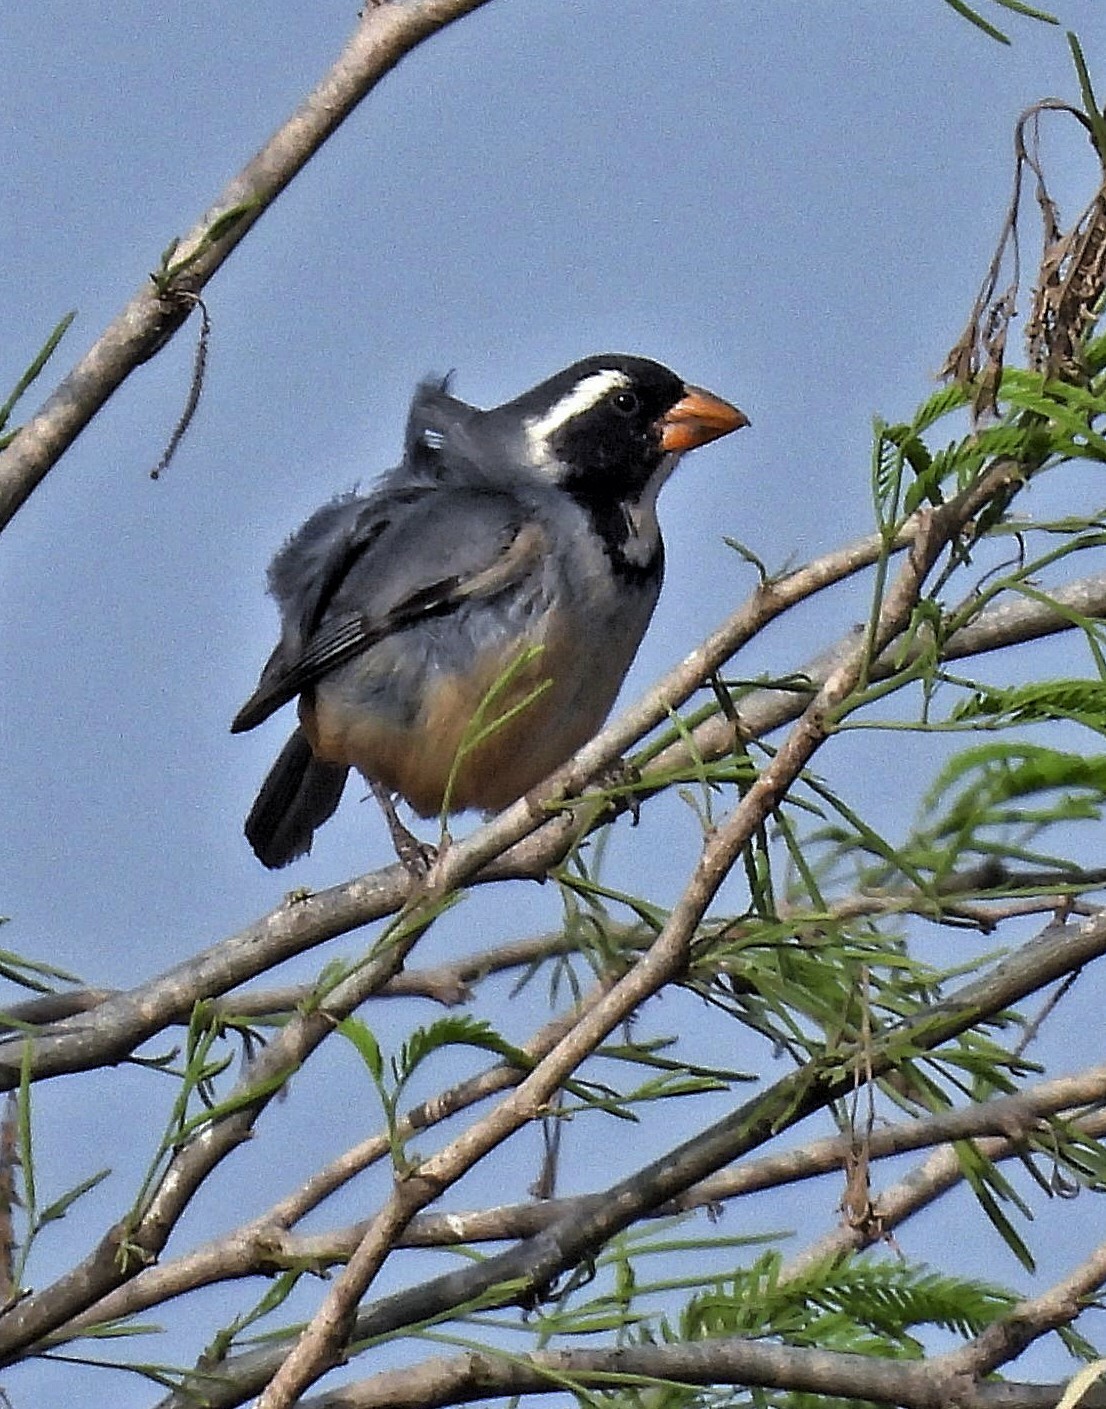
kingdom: Animalia
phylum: Chordata
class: Aves
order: Passeriformes
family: Thraupidae
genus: Saltator
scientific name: Saltator aurantiirostris
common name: Golden-billed saltator
